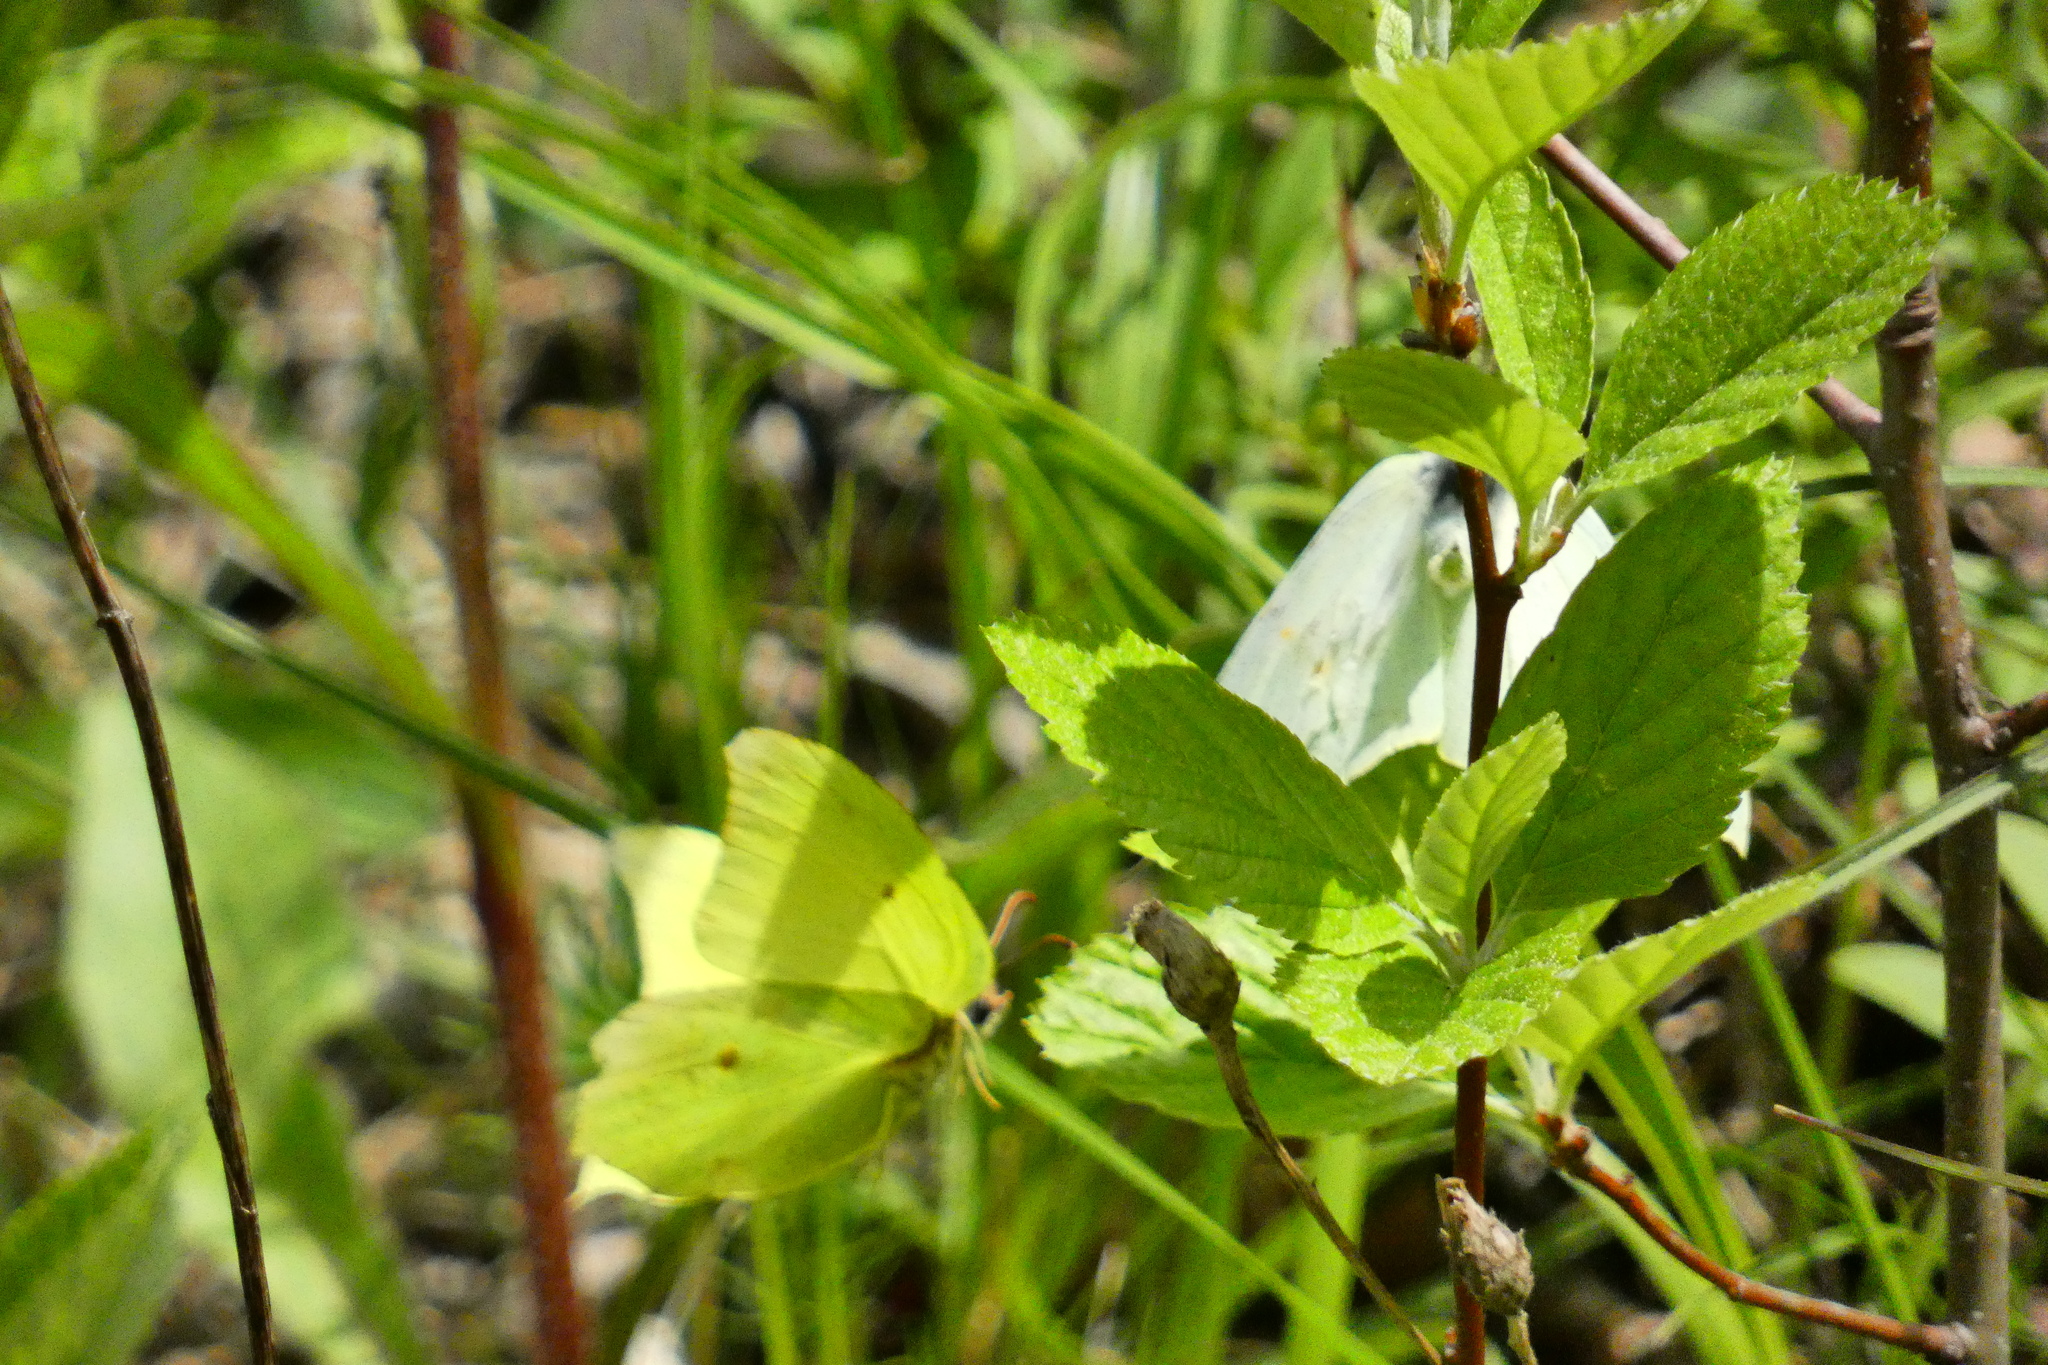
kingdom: Animalia
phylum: Arthropoda
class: Insecta
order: Lepidoptera
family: Pieridae
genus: Gonepteryx
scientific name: Gonepteryx rhamni
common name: Brimstone
